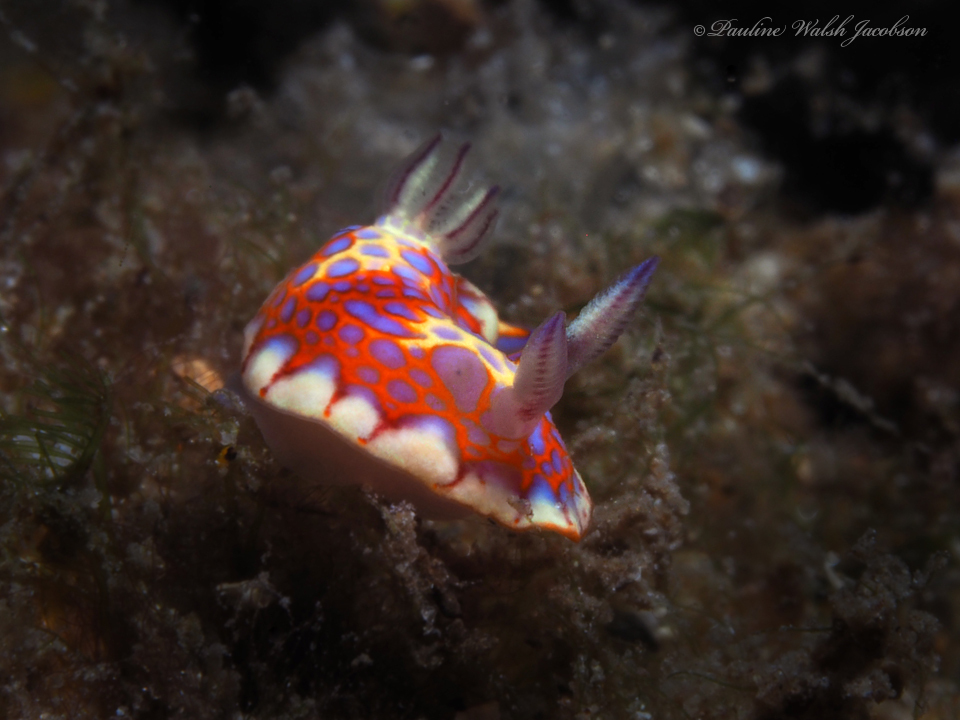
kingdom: Animalia
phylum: Mollusca
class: Gastropoda
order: Nudibranchia
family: Chromodorididae
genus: Felimida
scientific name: Felimida binza
